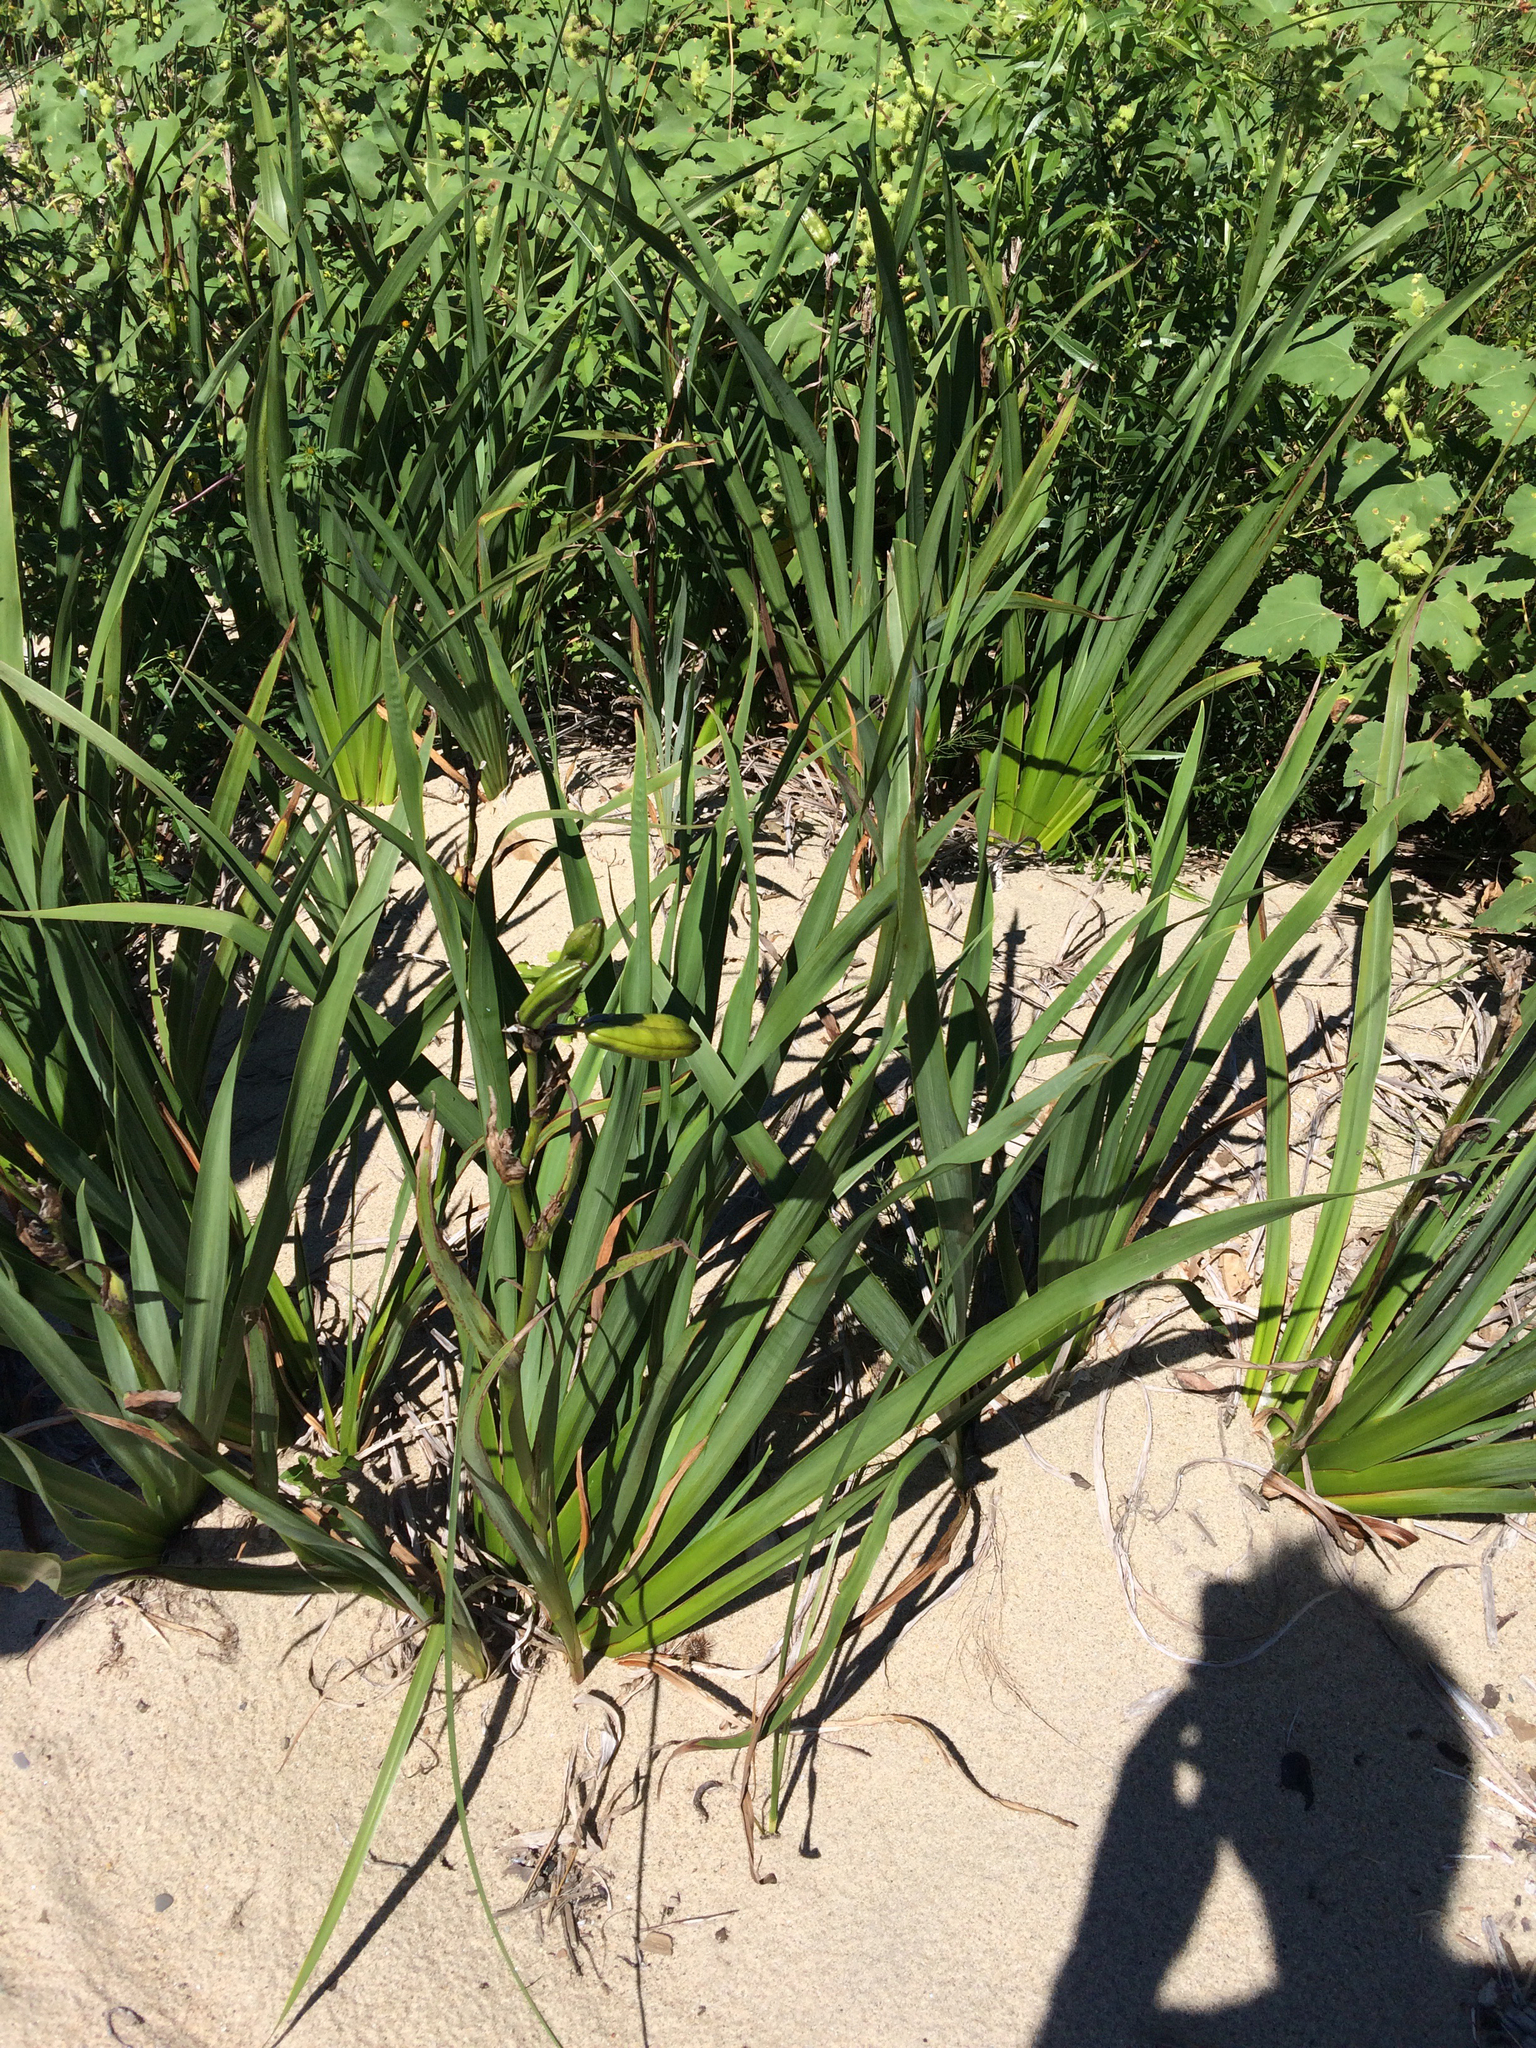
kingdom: Plantae
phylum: Tracheophyta
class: Liliopsida
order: Asparagales
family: Iridaceae
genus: Iris
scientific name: Iris pseudacorus
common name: Yellow flag
